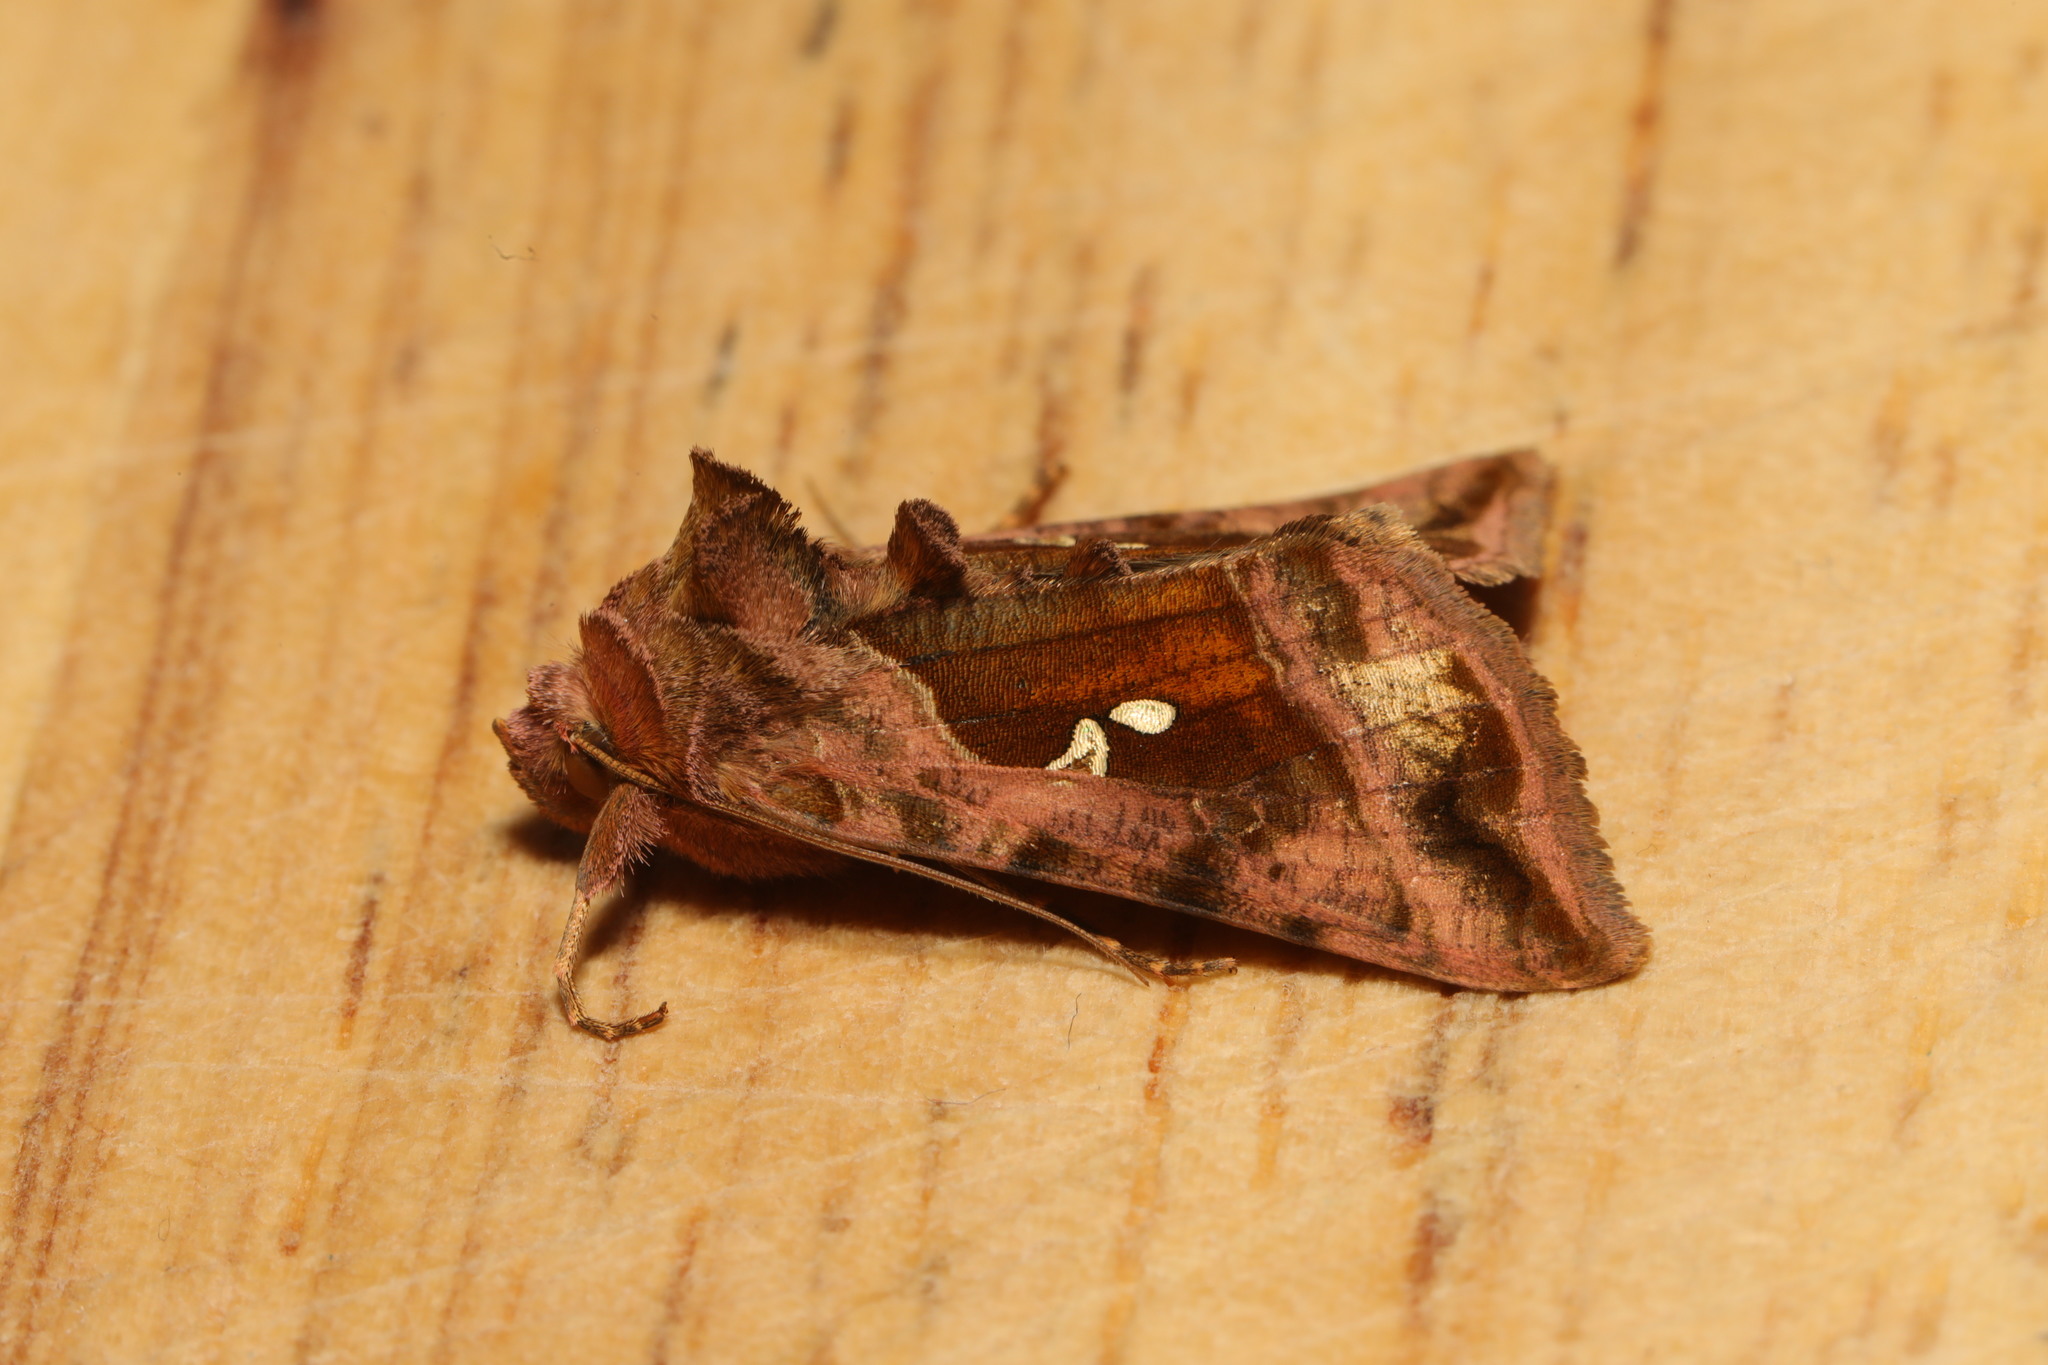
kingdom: Animalia
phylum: Arthropoda
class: Insecta
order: Lepidoptera
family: Noctuidae
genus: Autographa
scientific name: Autographa jota
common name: Plain golden y
